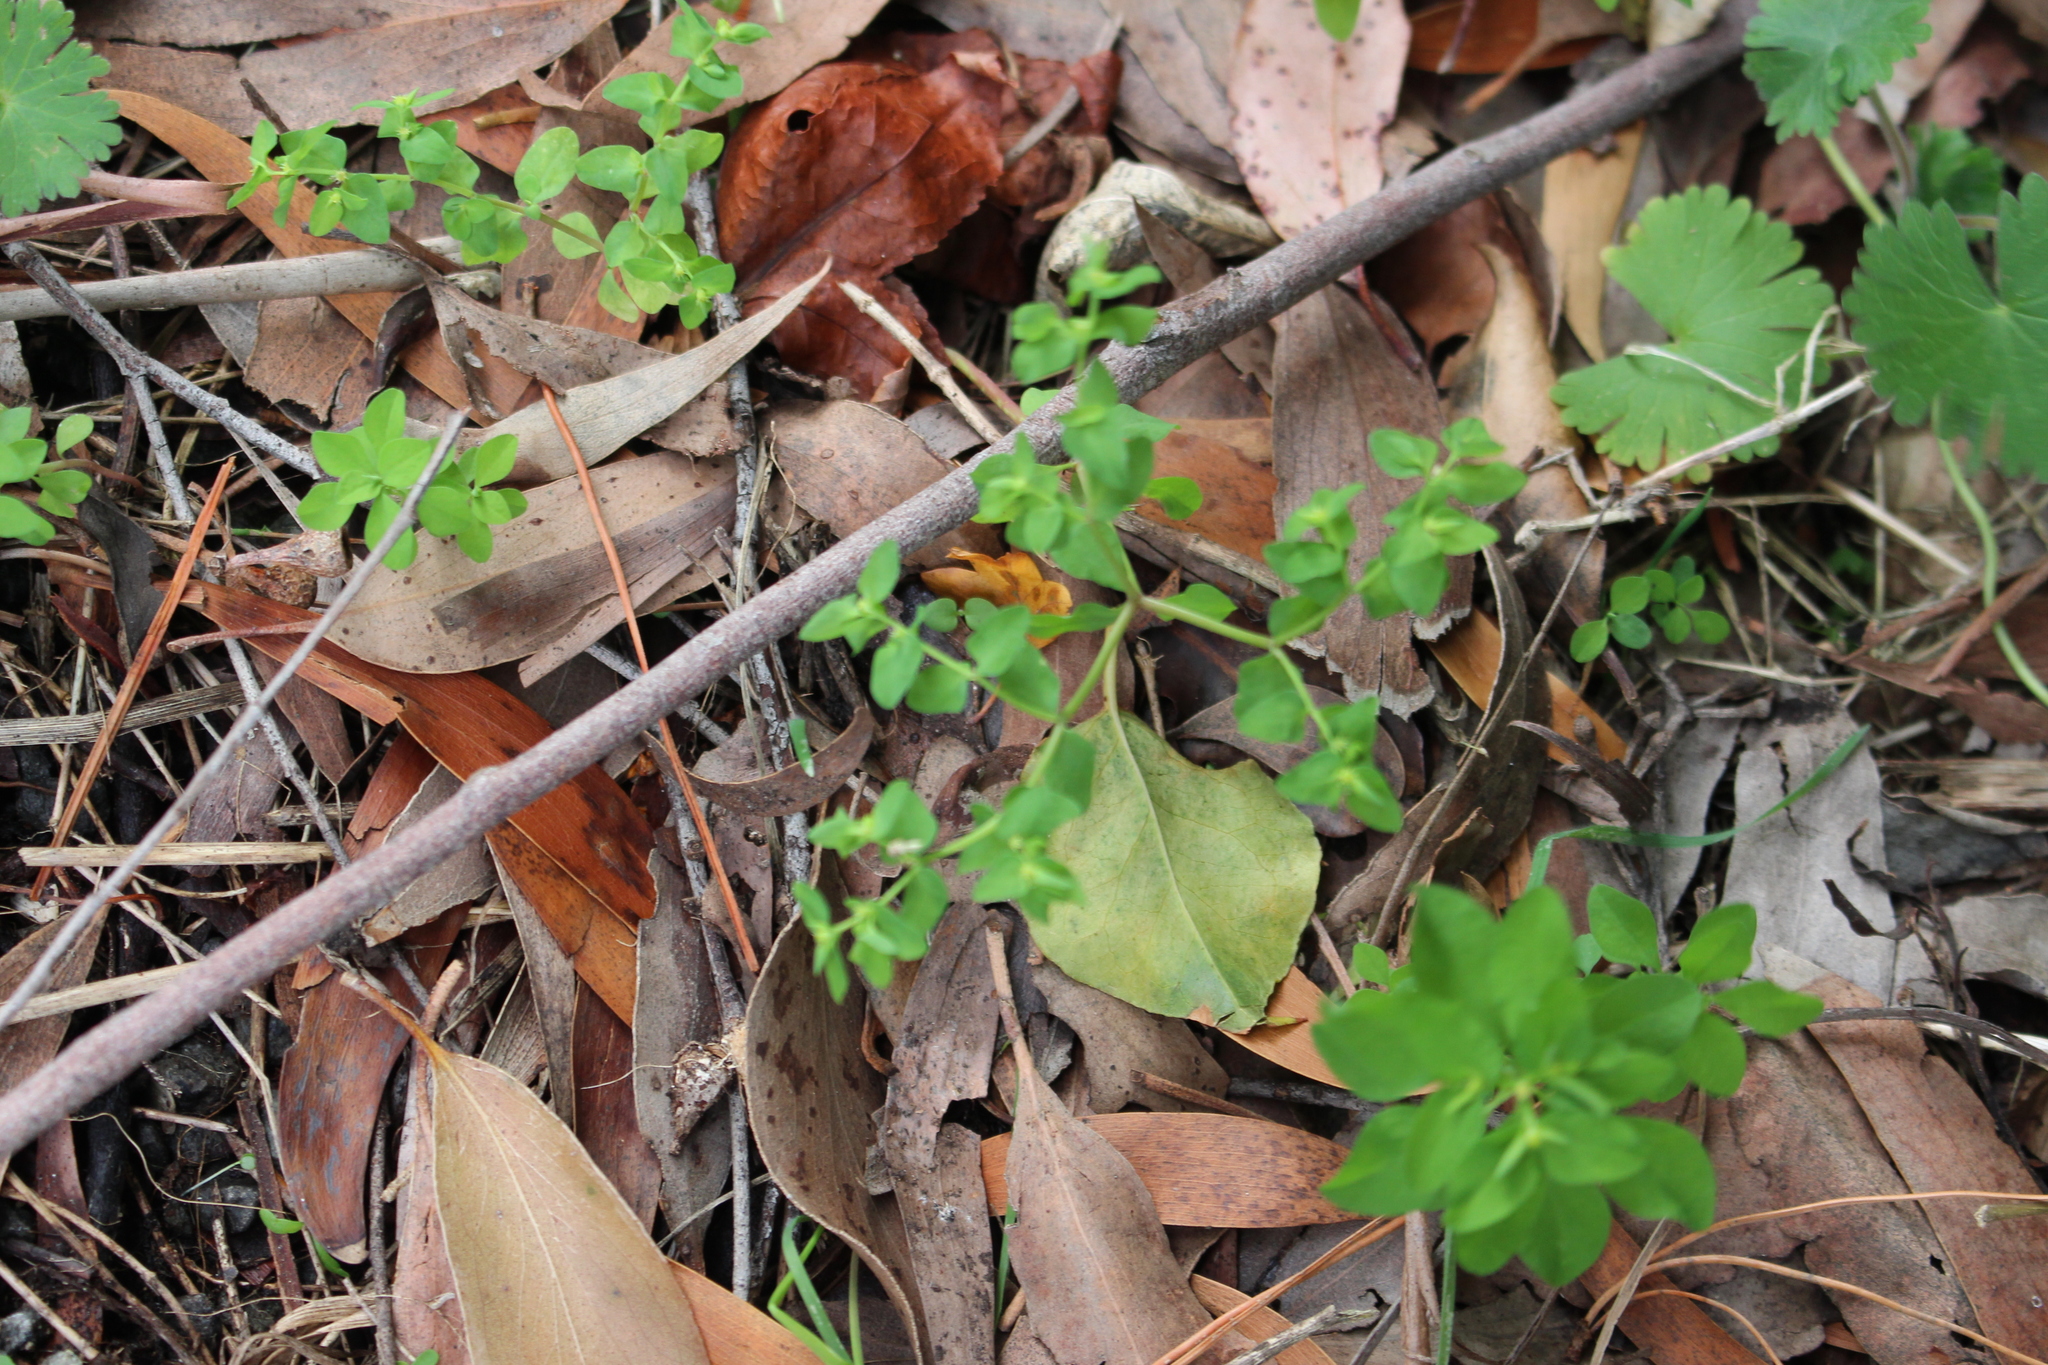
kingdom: Plantae
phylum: Tracheophyta
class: Magnoliopsida
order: Malpighiales
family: Euphorbiaceae
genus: Euphorbia
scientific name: Euphorbia peplus
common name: Petty spurge
